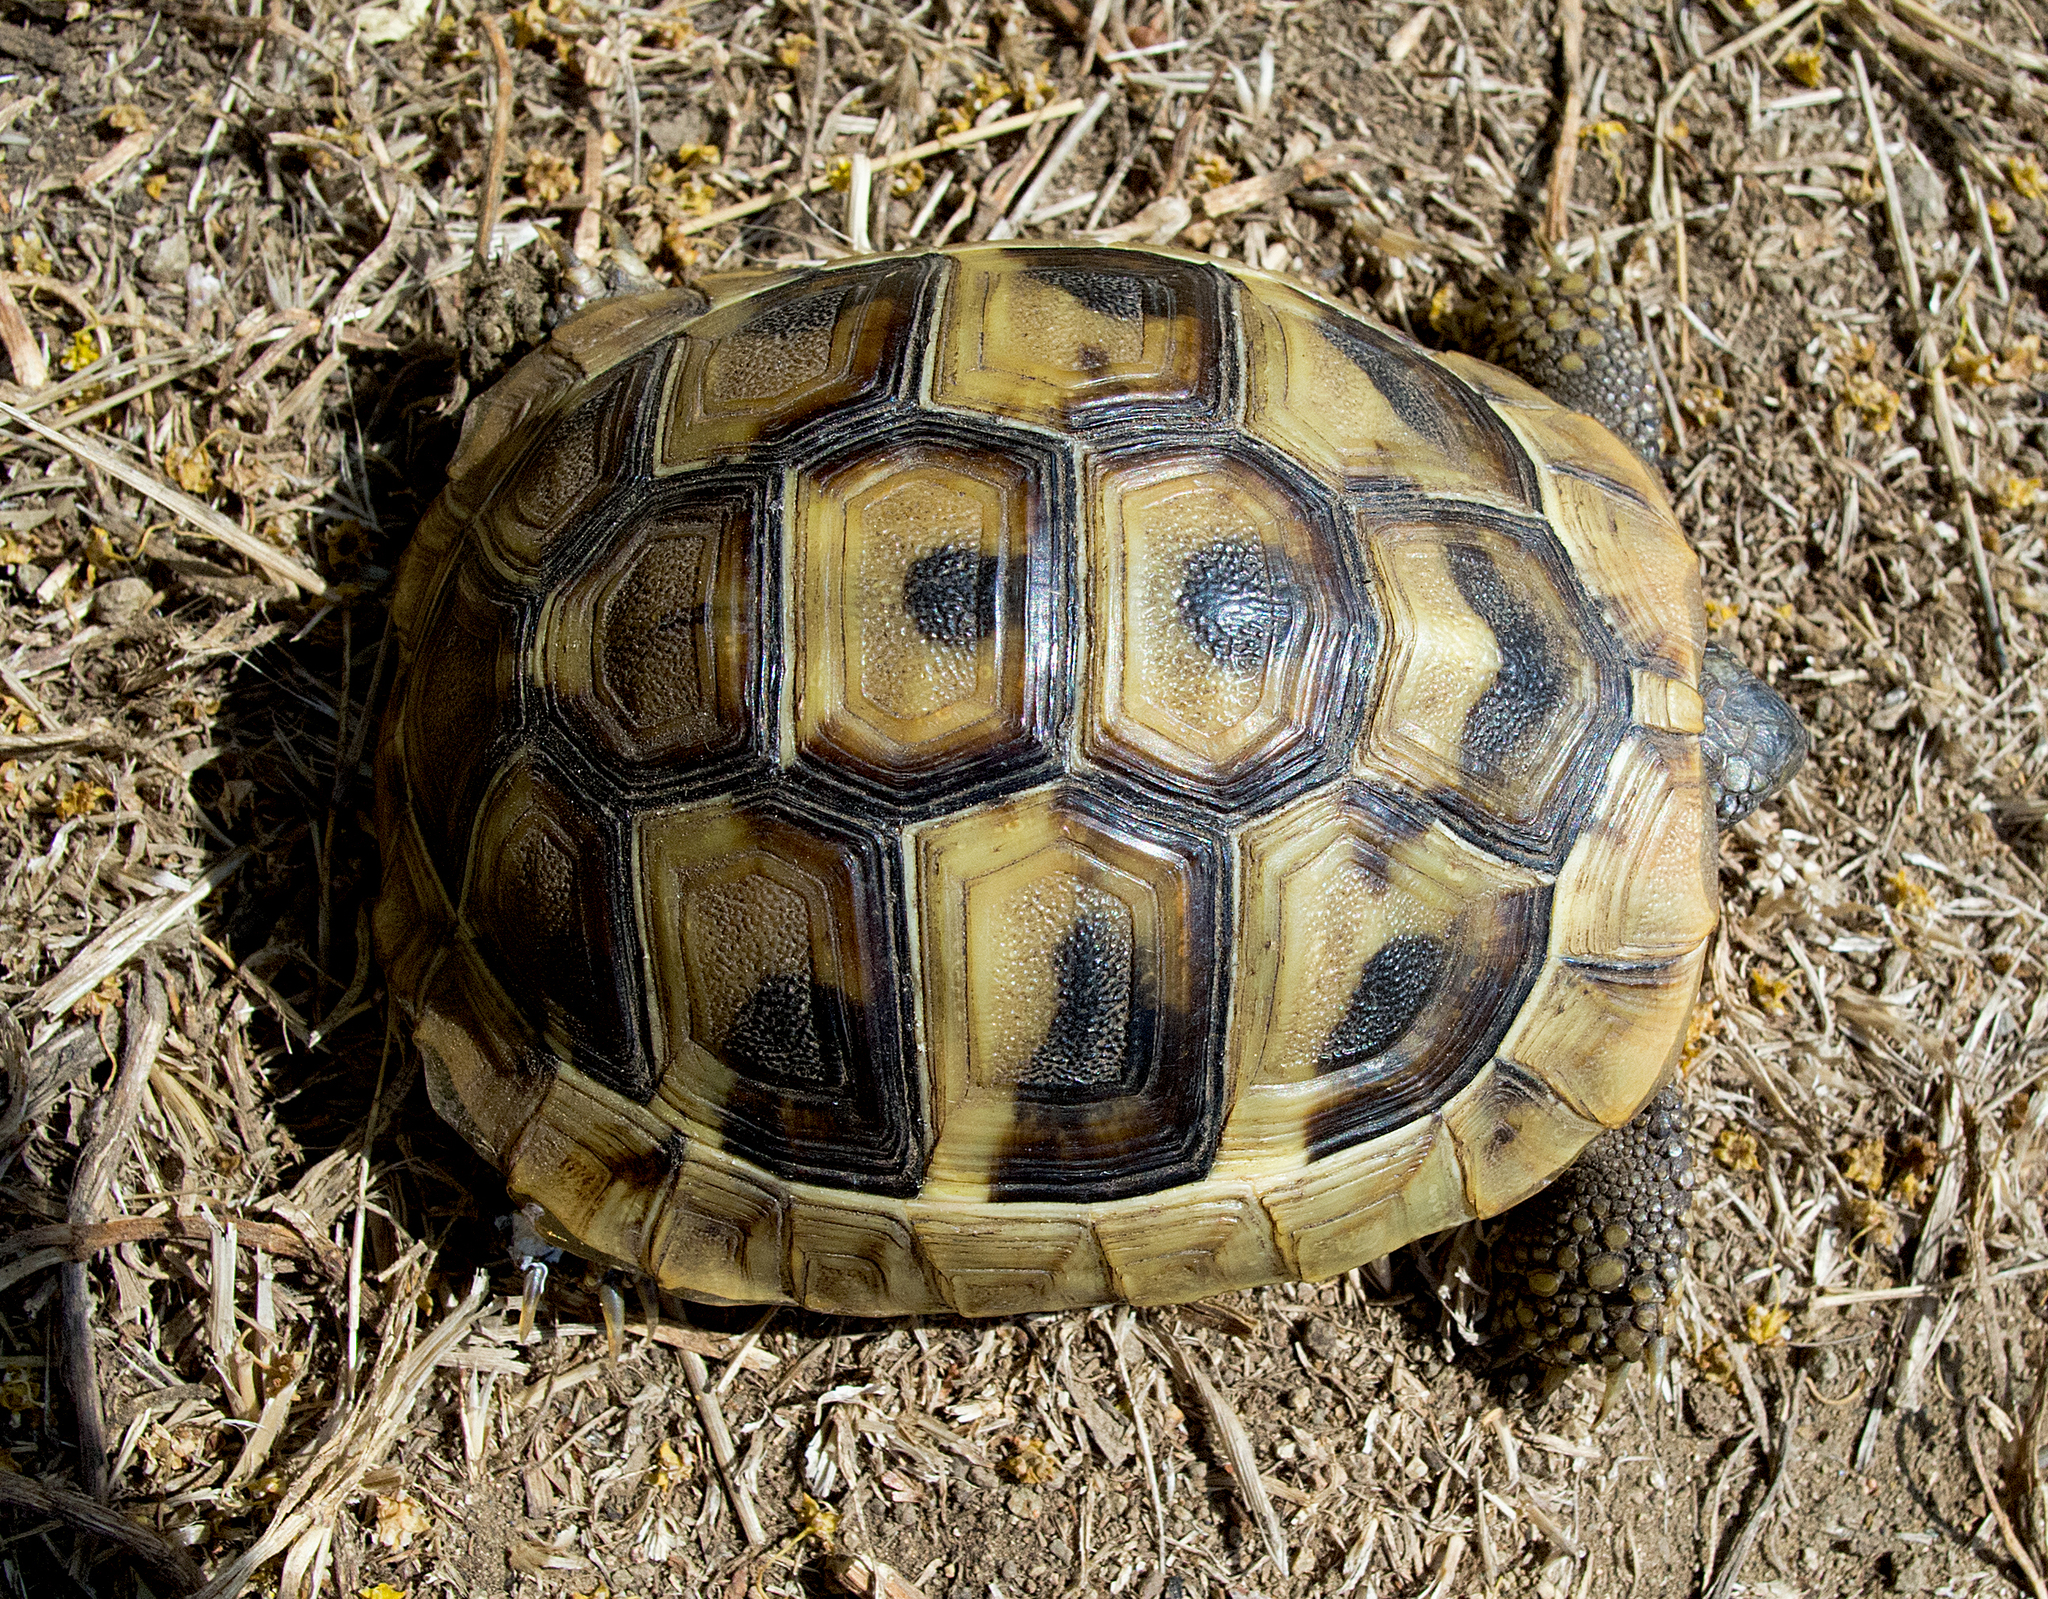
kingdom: Animalia
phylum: Chordata
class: Testudines
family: Testudinidae
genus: Testudo
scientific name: Testudo hermanni
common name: Hermann's tortoise
